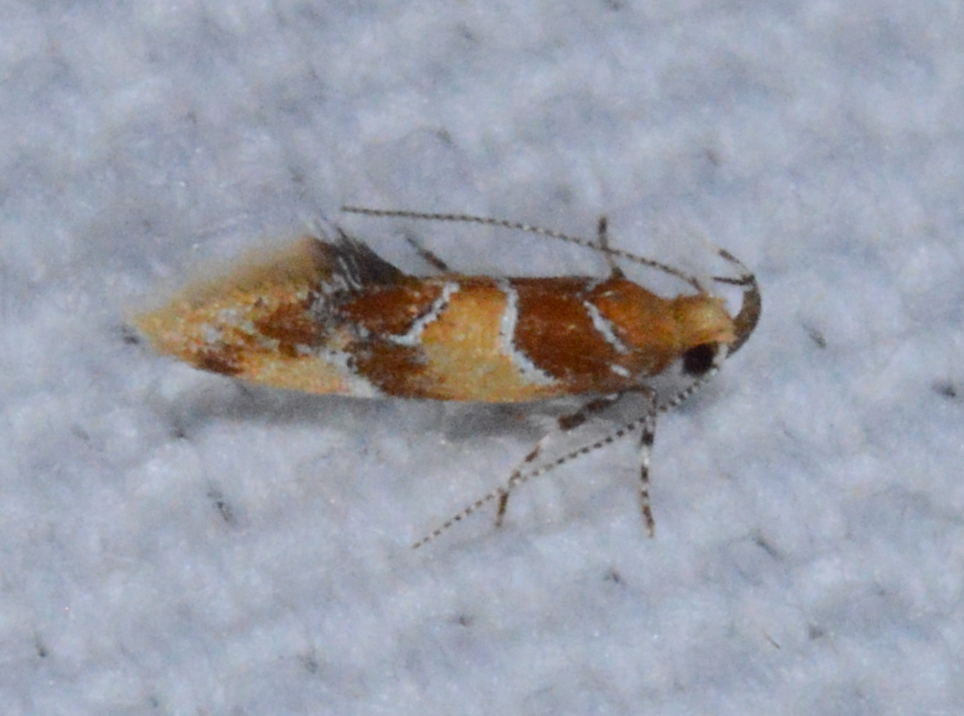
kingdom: Animalia
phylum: Arthropoda
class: Insecta
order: Lepidoptera
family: Oecophoridae
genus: Callima
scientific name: Callima argenticinctella
